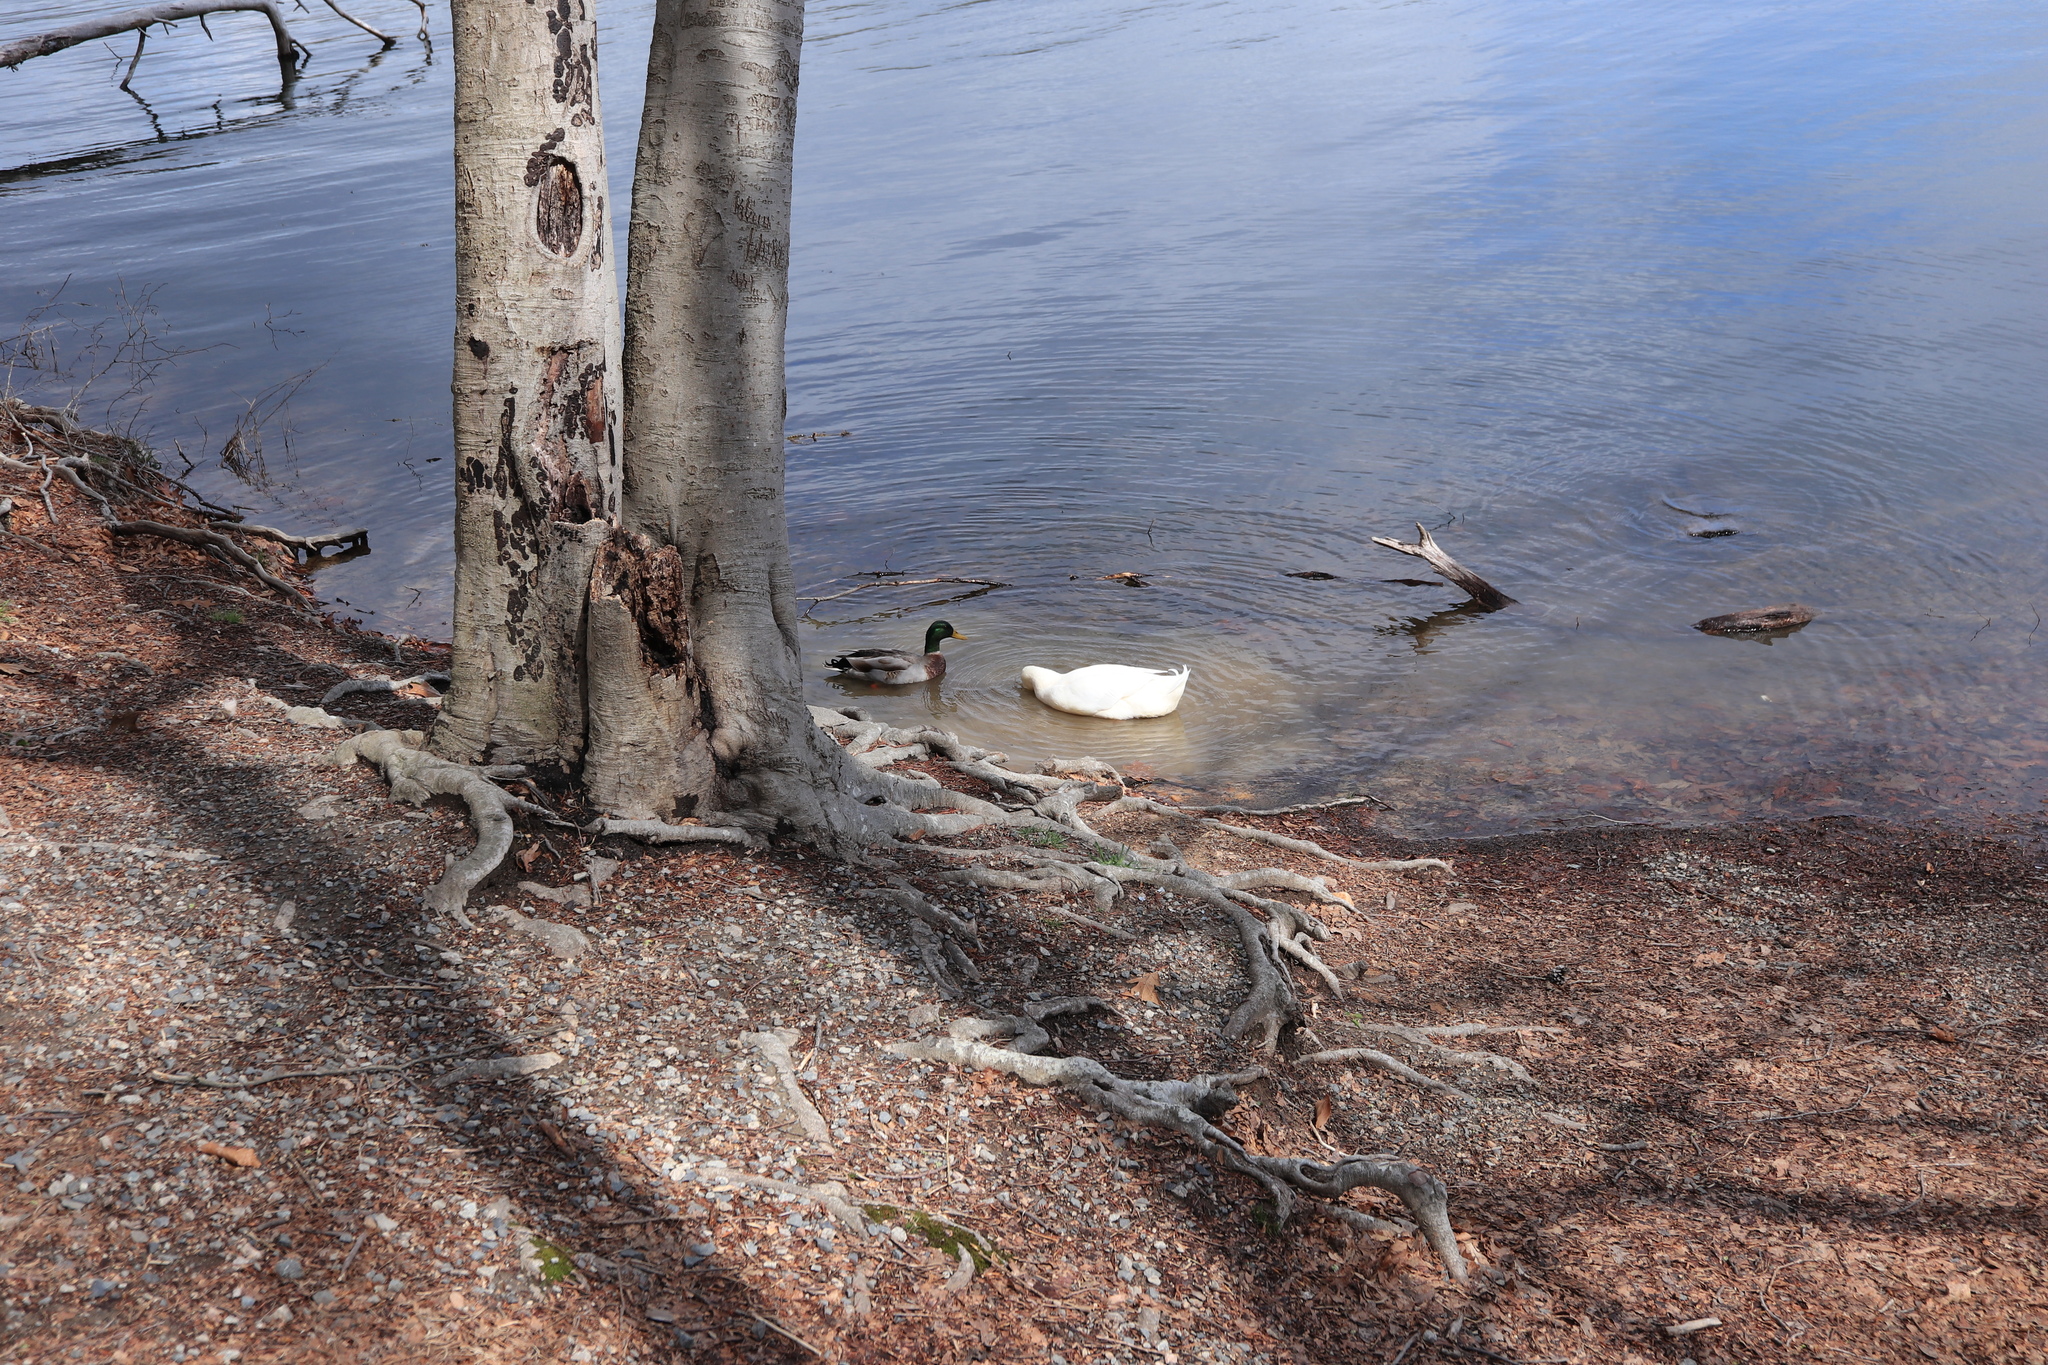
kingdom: Animalia
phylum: Chordata
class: Aves
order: Anseriformes
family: Anatidae
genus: Anas
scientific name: Anas platyrhynchos
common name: Mallard
